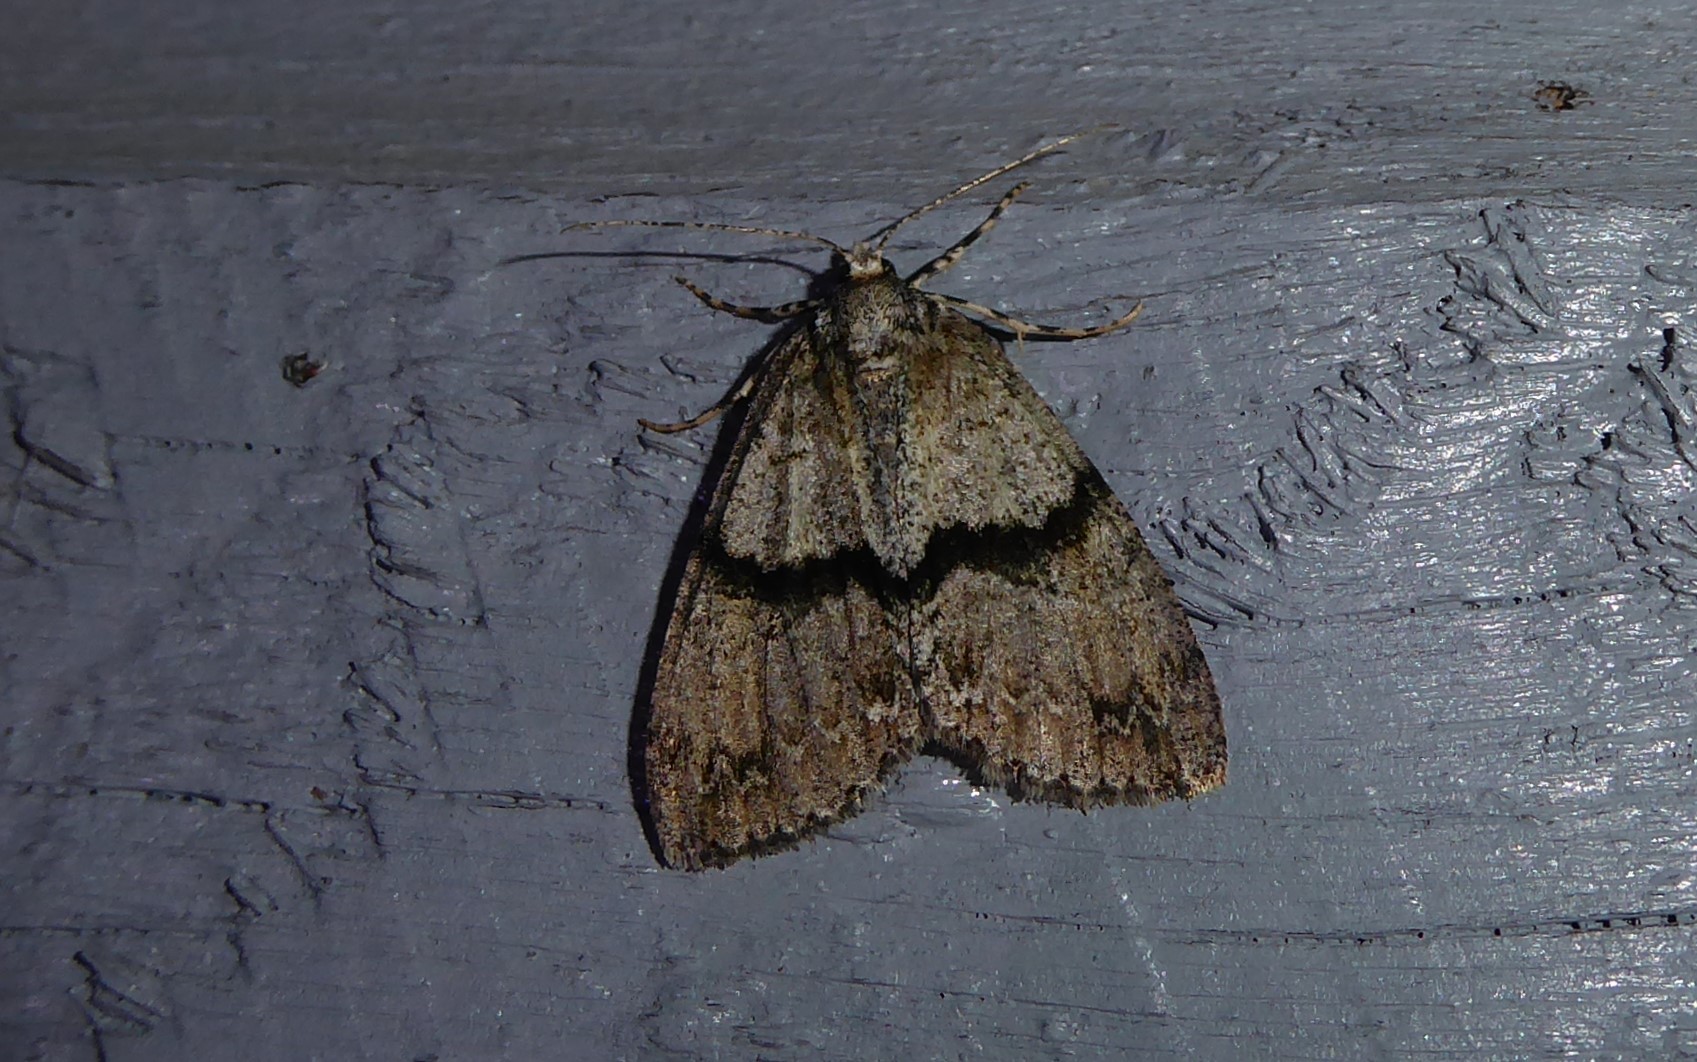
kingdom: Animalia
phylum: Arthropoda
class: Insecta
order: Lepidoptera
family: Geometridae
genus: Pseudocoremia
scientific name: Pseudocoremia suavis
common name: Common forest looper
